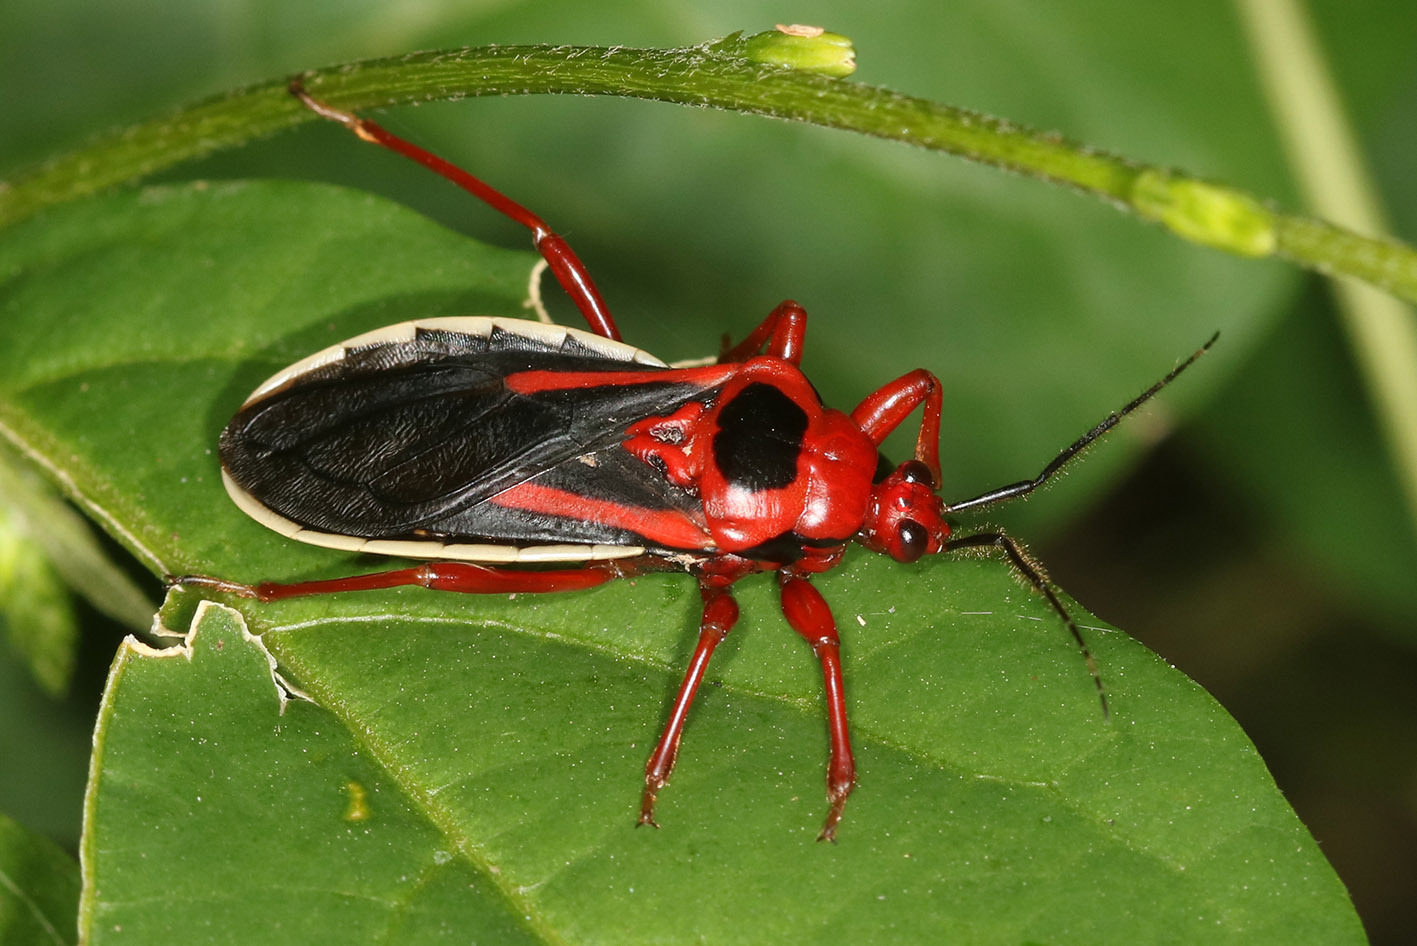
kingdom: Animalia
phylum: Arthropoda
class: Insecta
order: Hemiptera
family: Reduviidae
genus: Brontostoma
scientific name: Brontostoma discus
